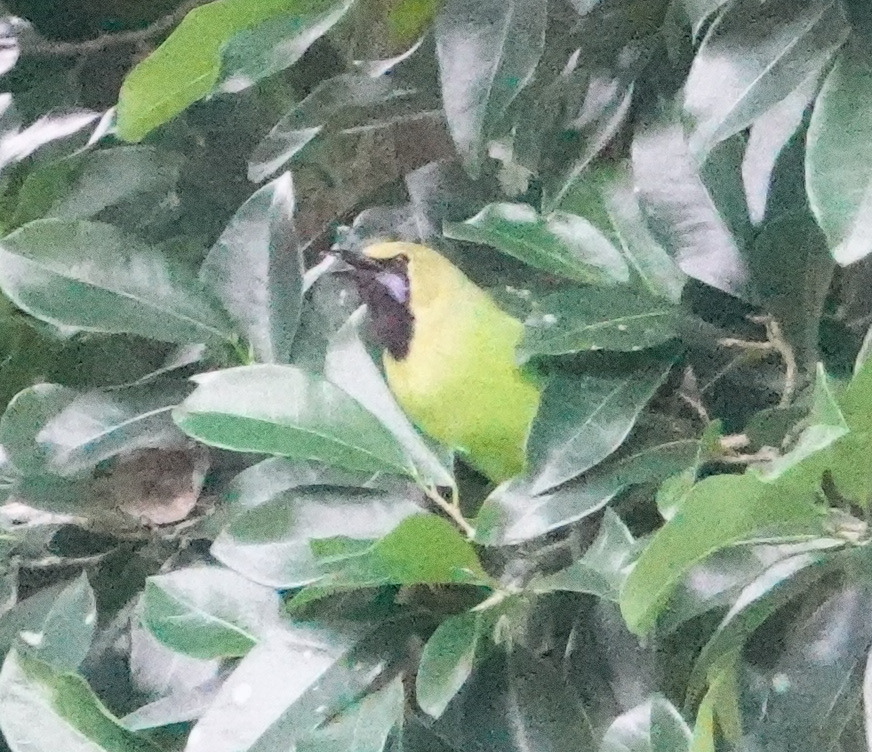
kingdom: Animalia
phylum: Chordata
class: Aves
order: Passeriformes
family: Chloropseidae
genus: Chloropsis
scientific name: Chloropsis jerdoni
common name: Jerdon's leafbird
